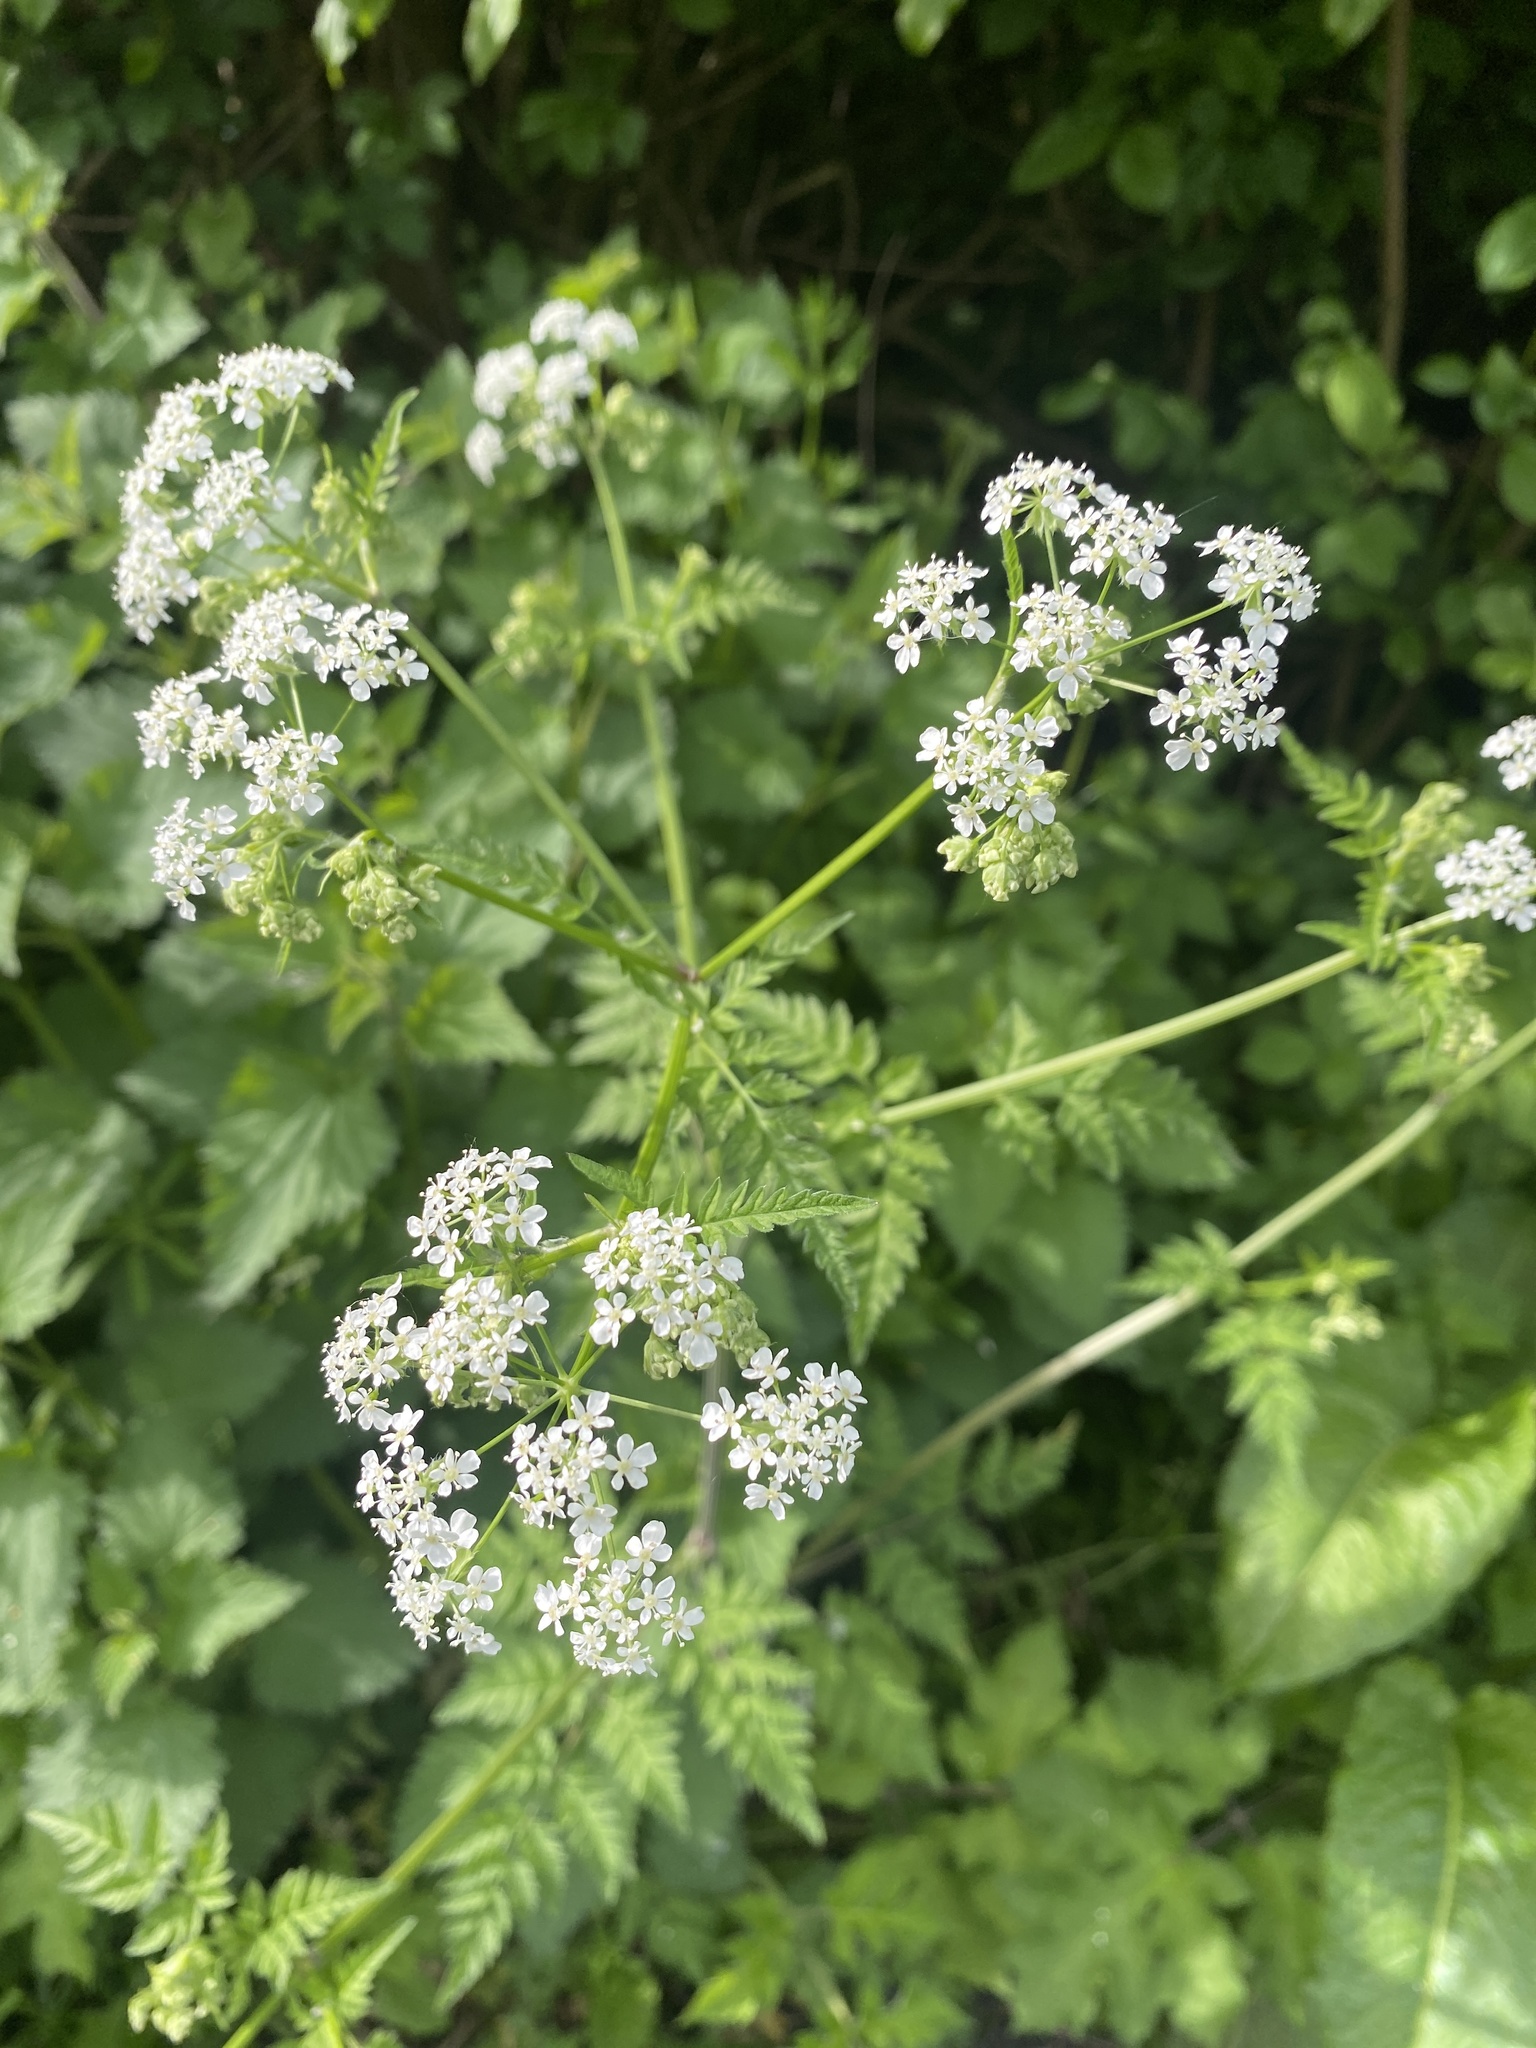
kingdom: Plantae
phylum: Tracheophyta
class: Magnoliopsida
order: Apiales
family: Apiaceae
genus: Anthriscus
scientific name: Anthriscus sylvestris
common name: Cow parsley
